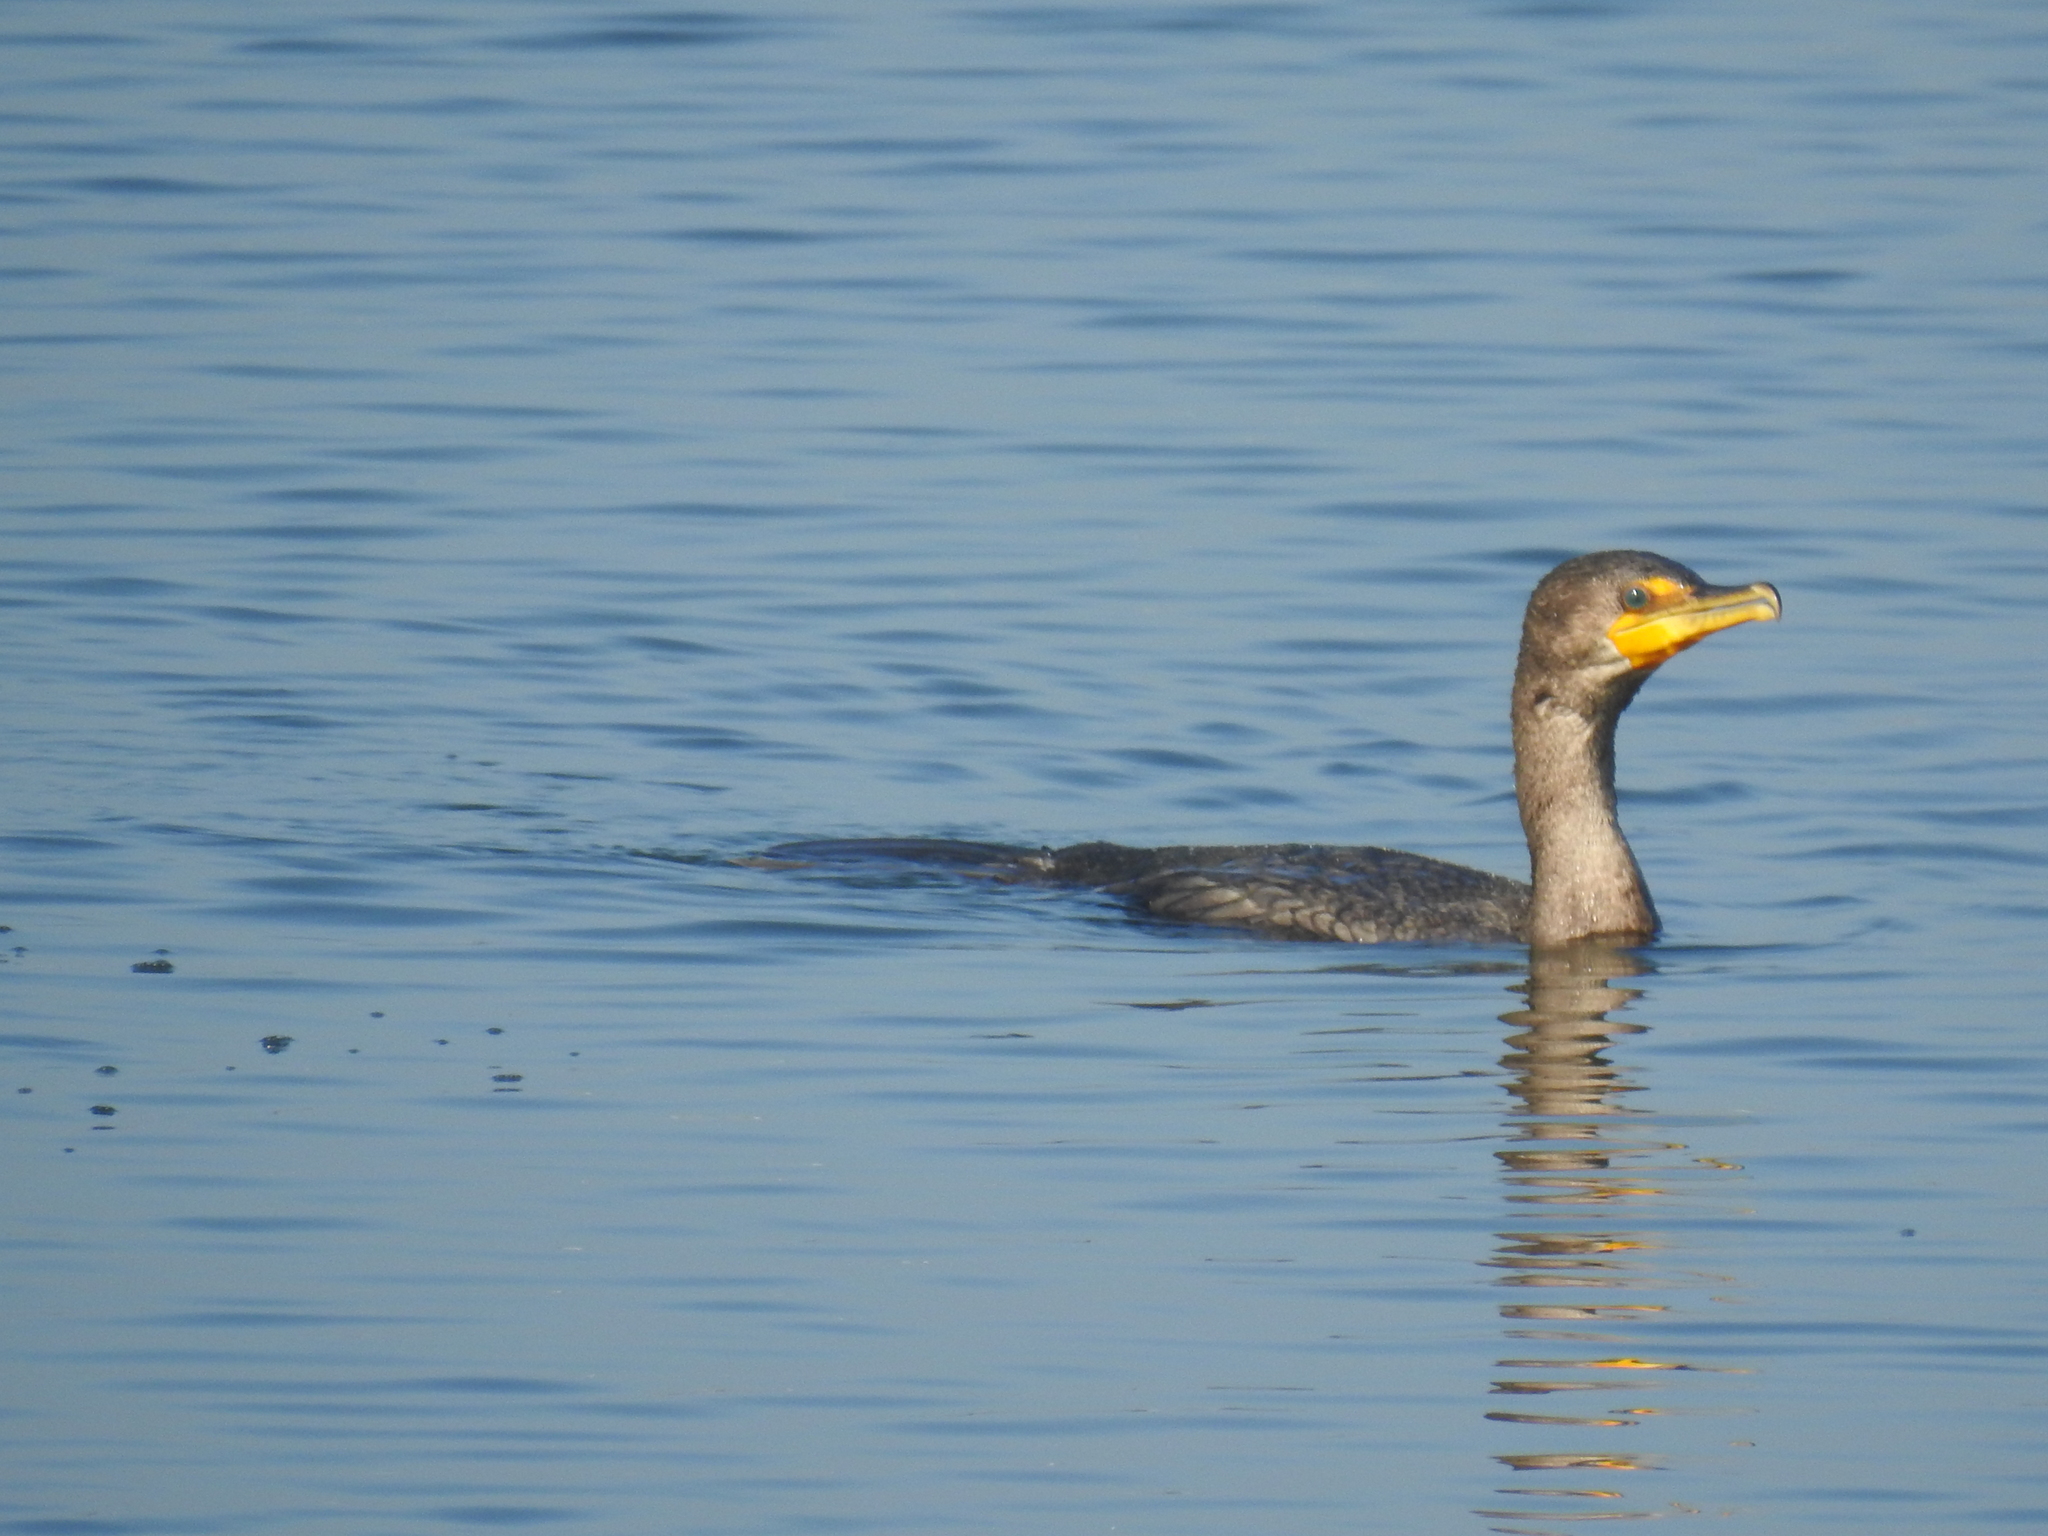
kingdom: Animalia
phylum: Chordata
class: Aves
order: Suliformes
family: Phalacrocoracidae
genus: Phalacrocorax
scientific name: Phalacrocorax auritus
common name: Double-crested cormorant
